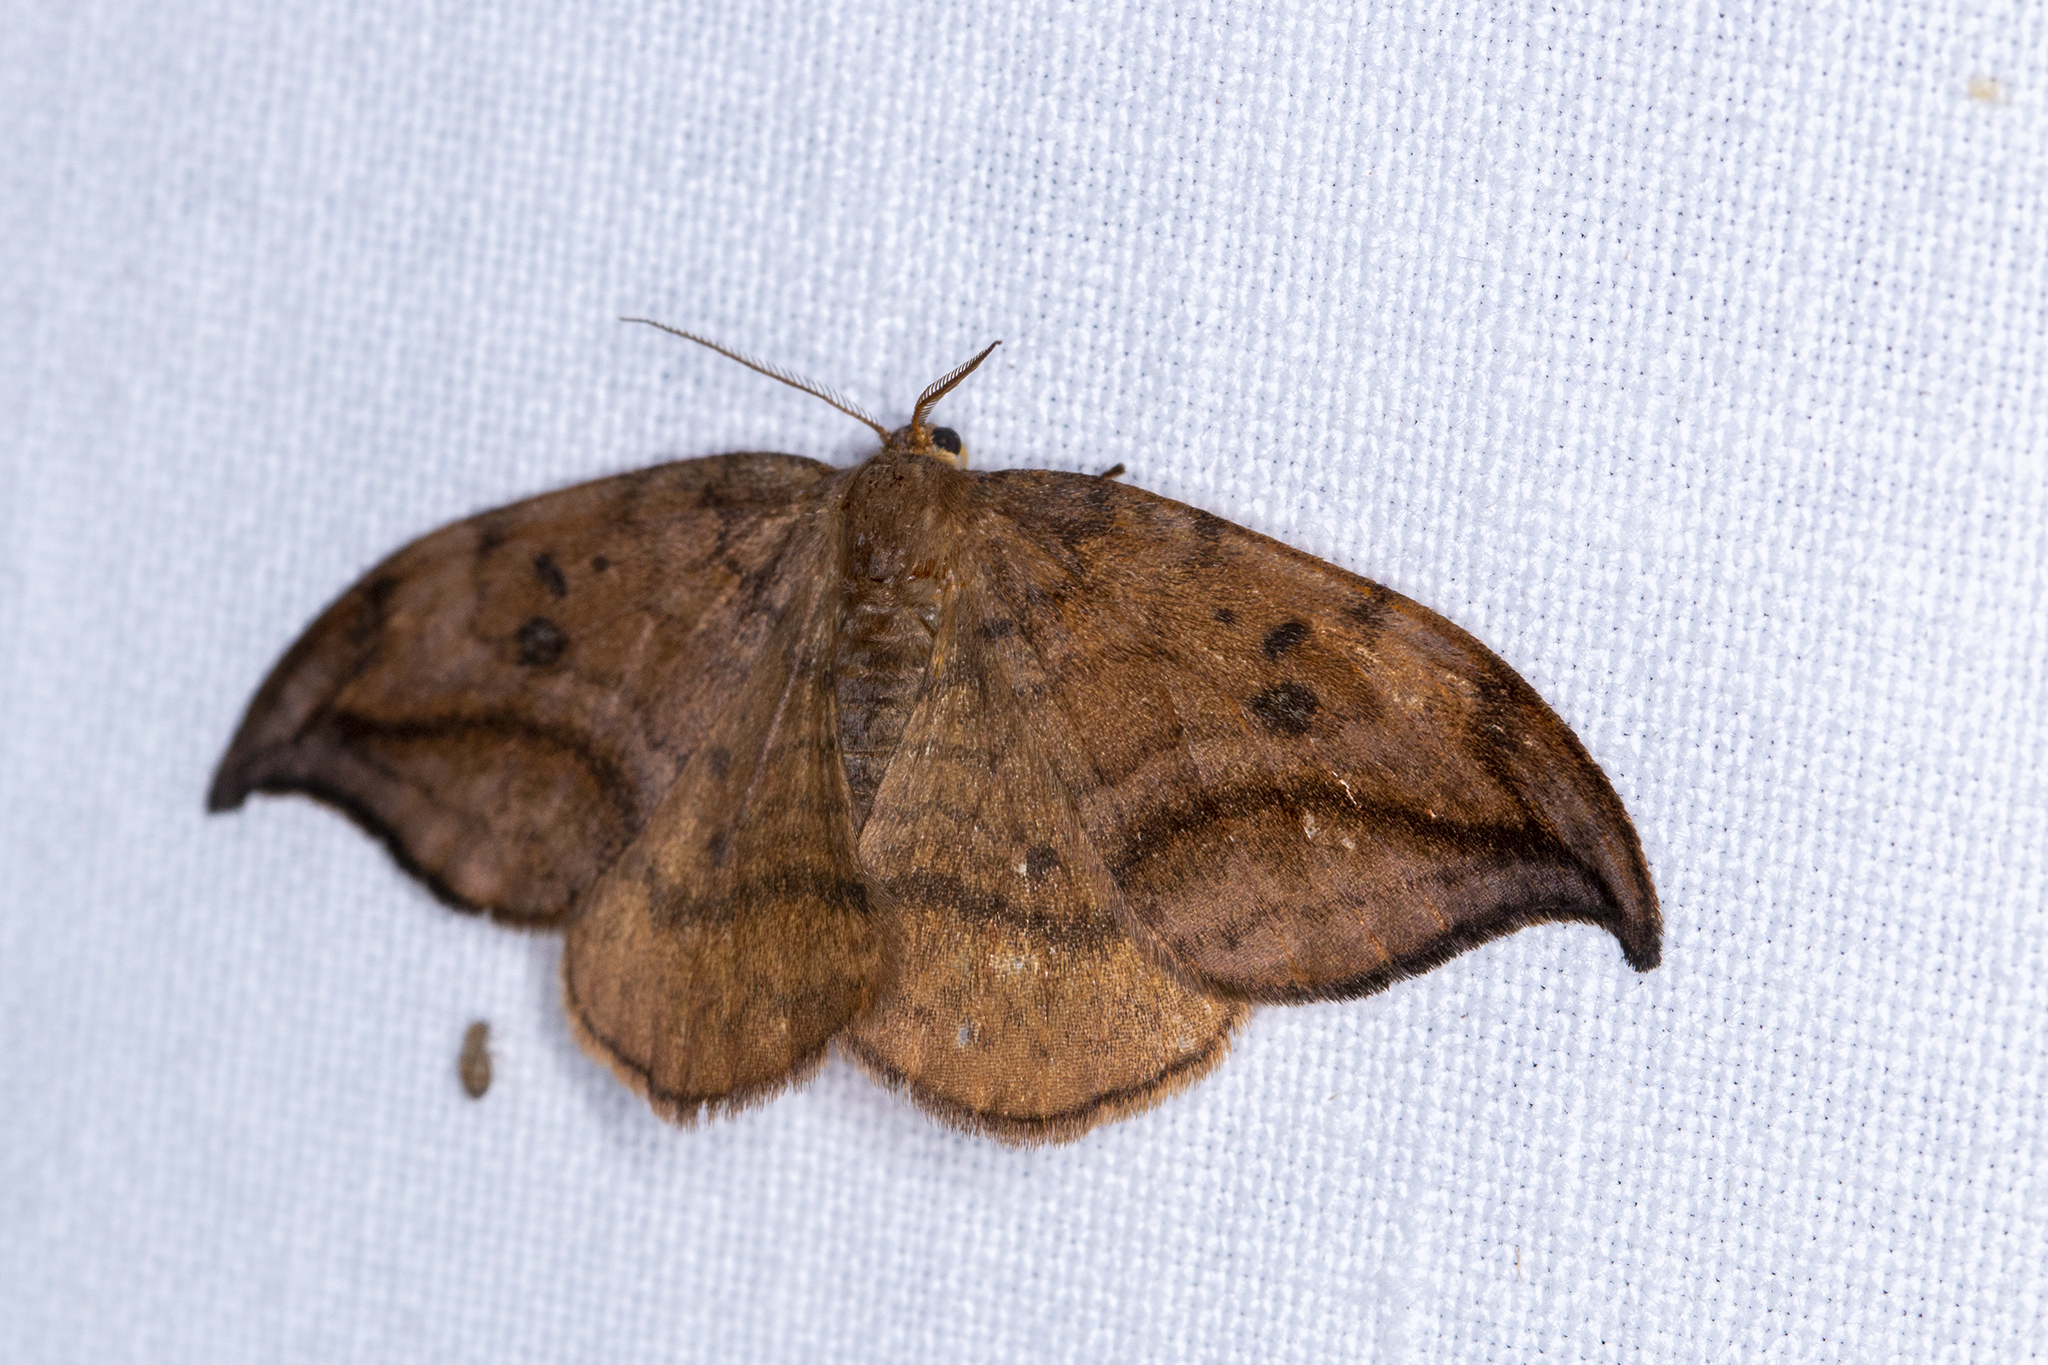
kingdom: Animalia
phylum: Arthropoda
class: Insecta
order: Lepidoptera
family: Drepanidae
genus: Drepana
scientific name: Drepana curvatula
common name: Dusky hook-tip
